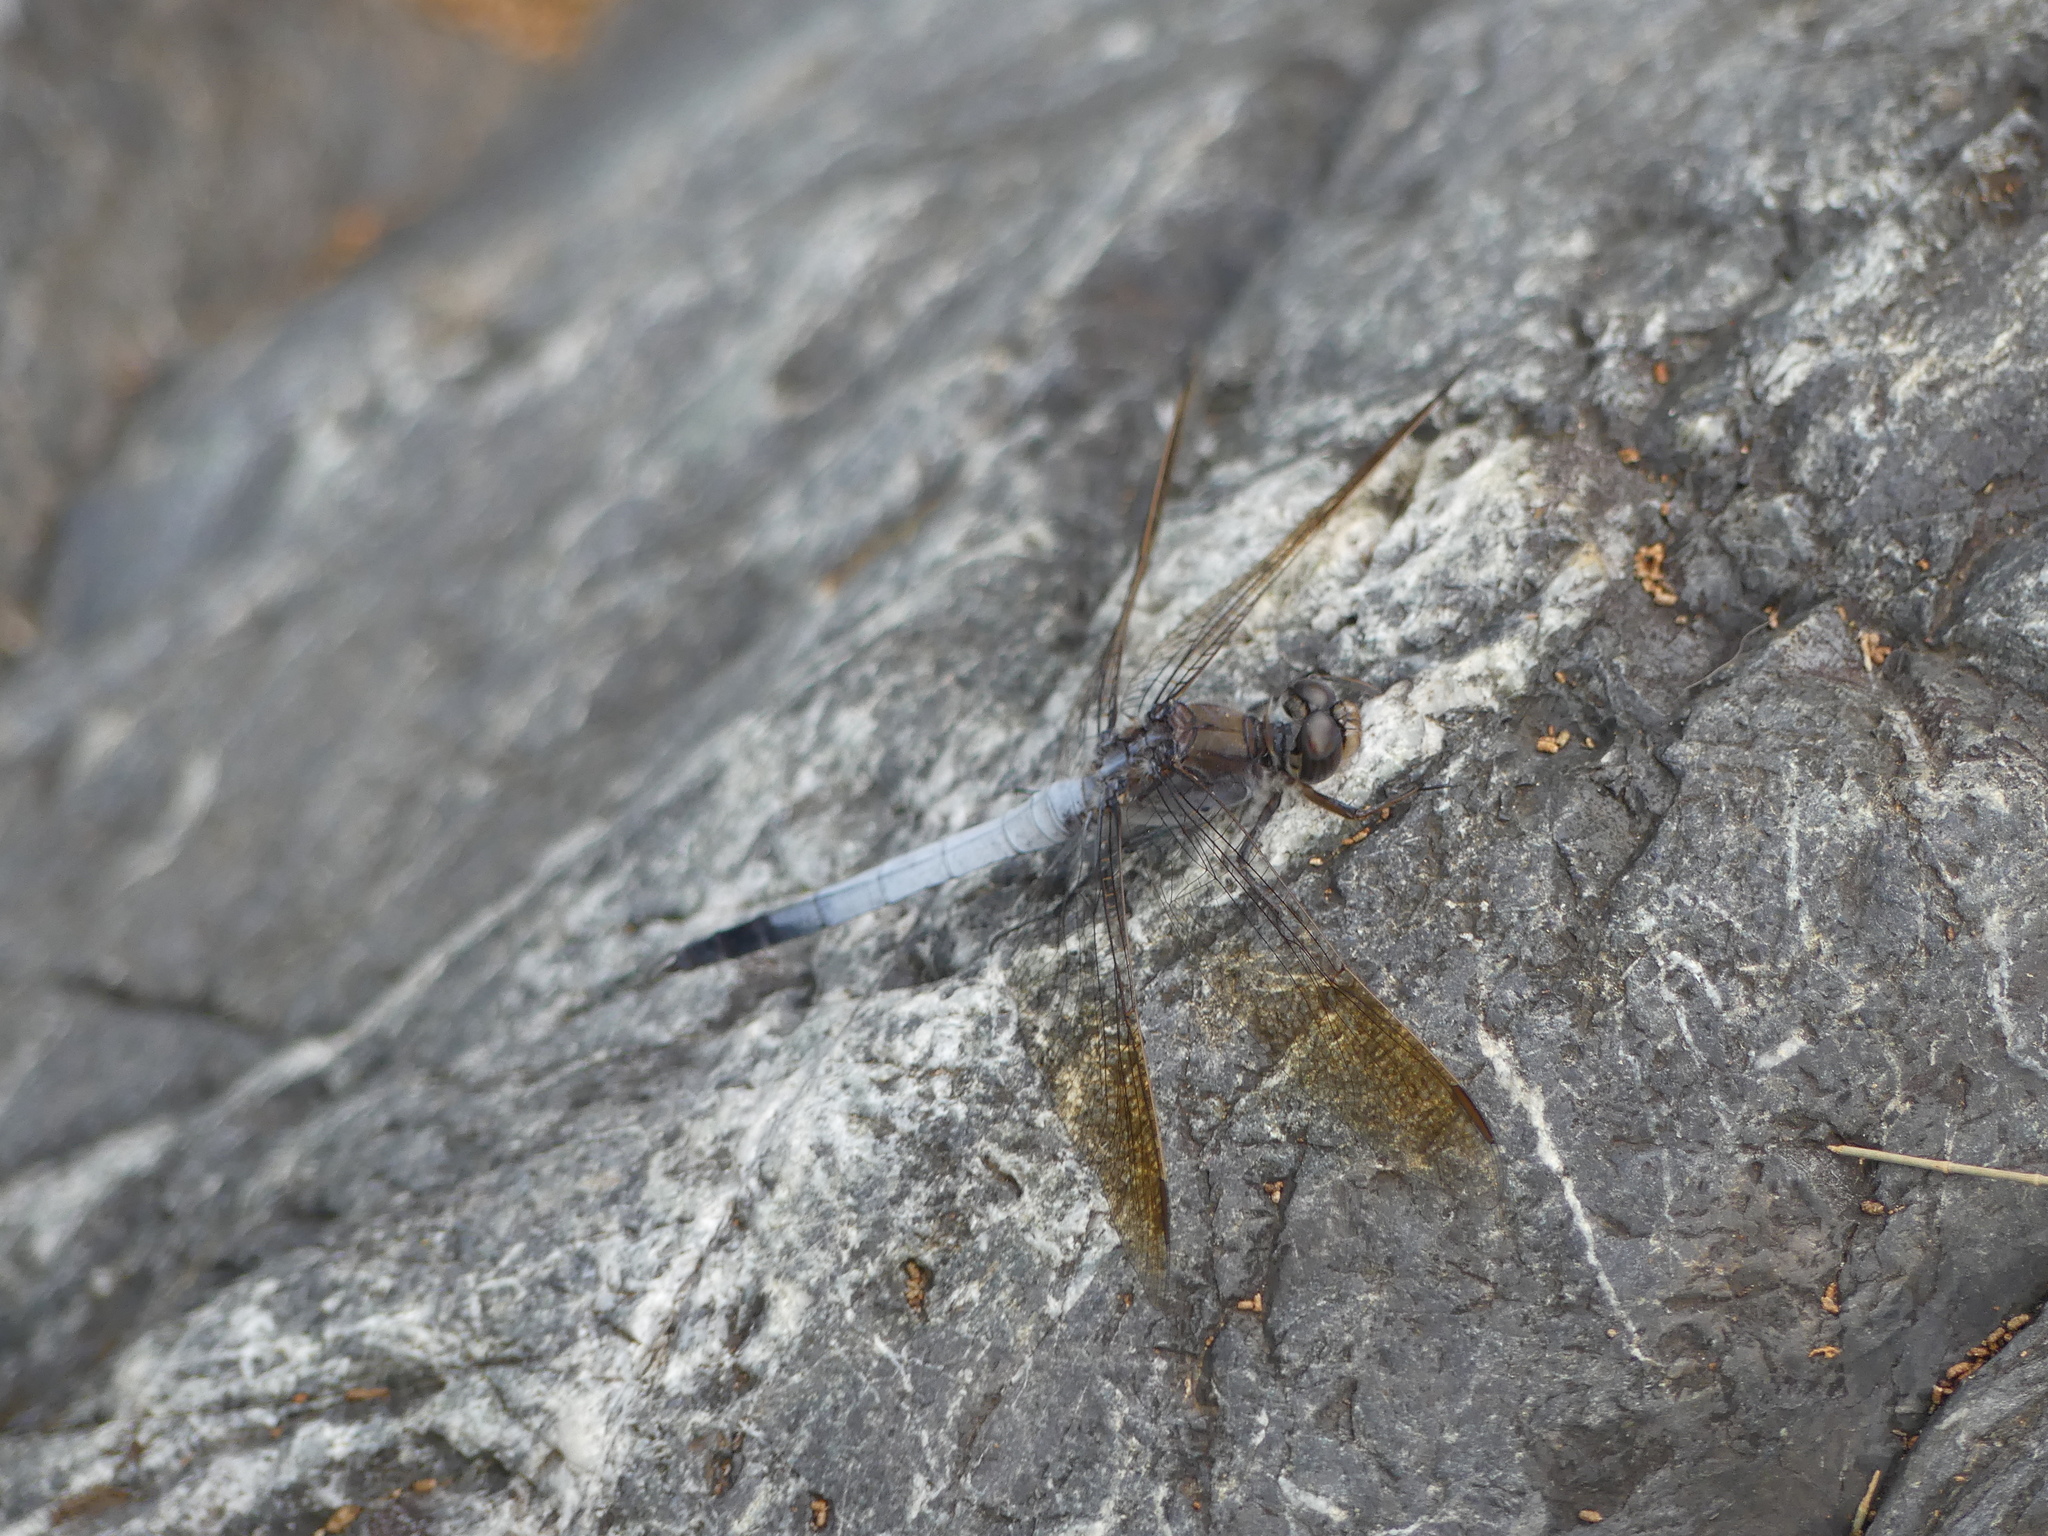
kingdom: Animalia
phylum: Arthropoda
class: Insecta
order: Odonata
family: Libellulidae
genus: Orthetrum
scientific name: Orthetrum caledonicum
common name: Blue skimmer
